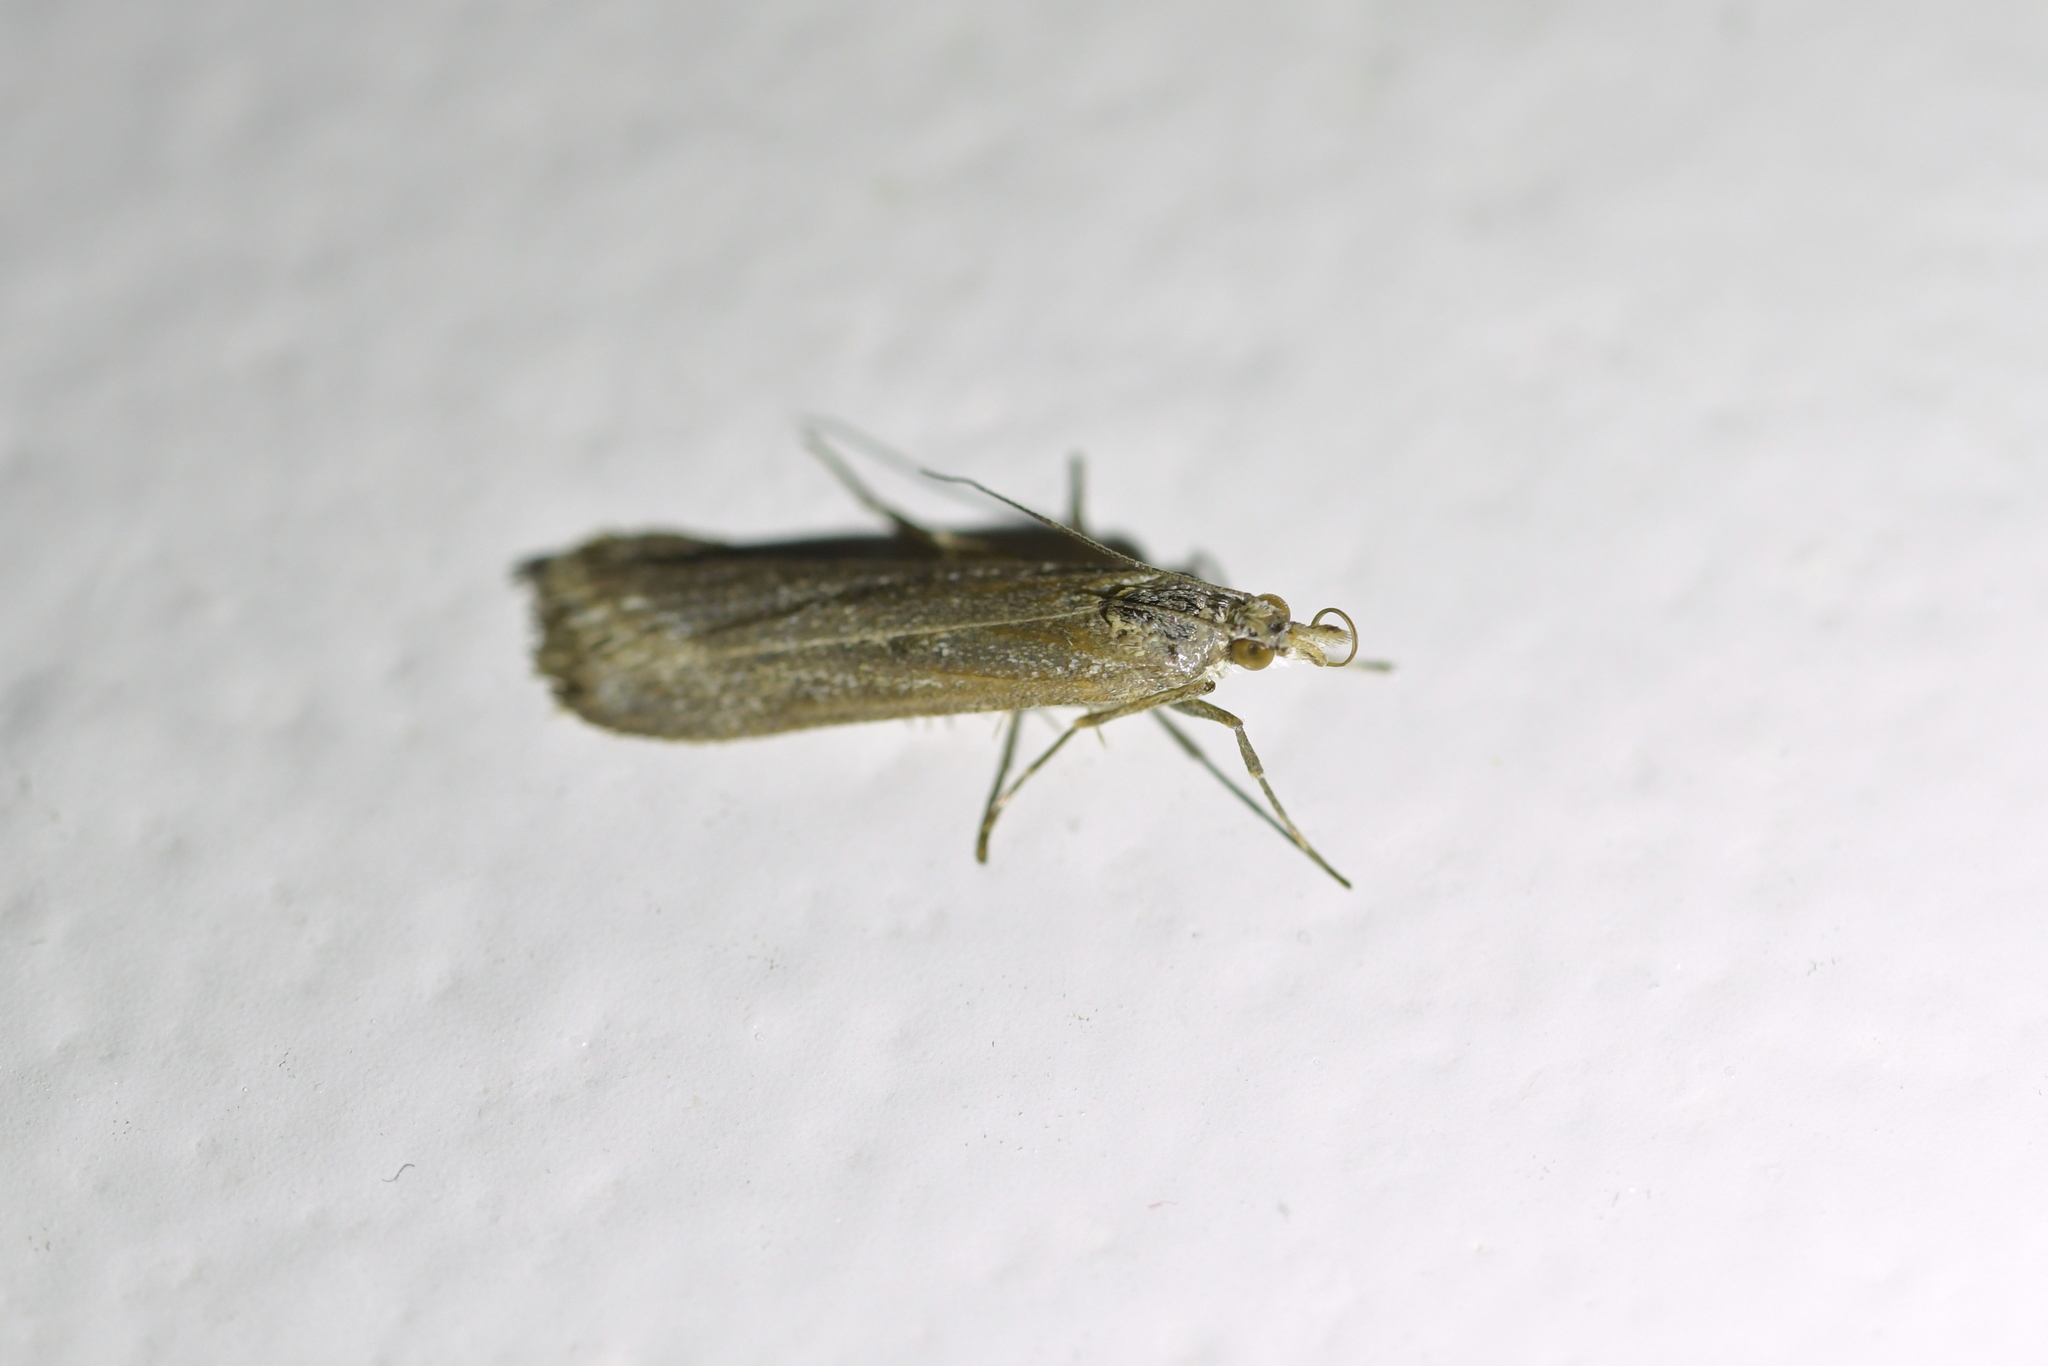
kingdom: Animalia
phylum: Arthropoda
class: Insecta
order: Lepidoptera
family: Crambidae
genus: Eudonia
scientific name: Eudonia leptalea
